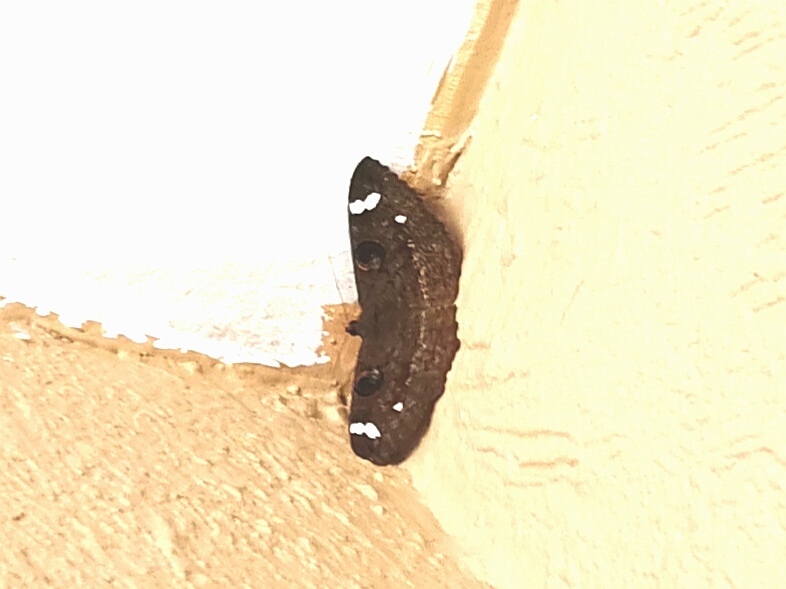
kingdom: Animalia
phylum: Arthropoda
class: Insecta
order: Lepidoptera
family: Erebidae
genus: Erebus
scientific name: Erebus hieroglyphica
